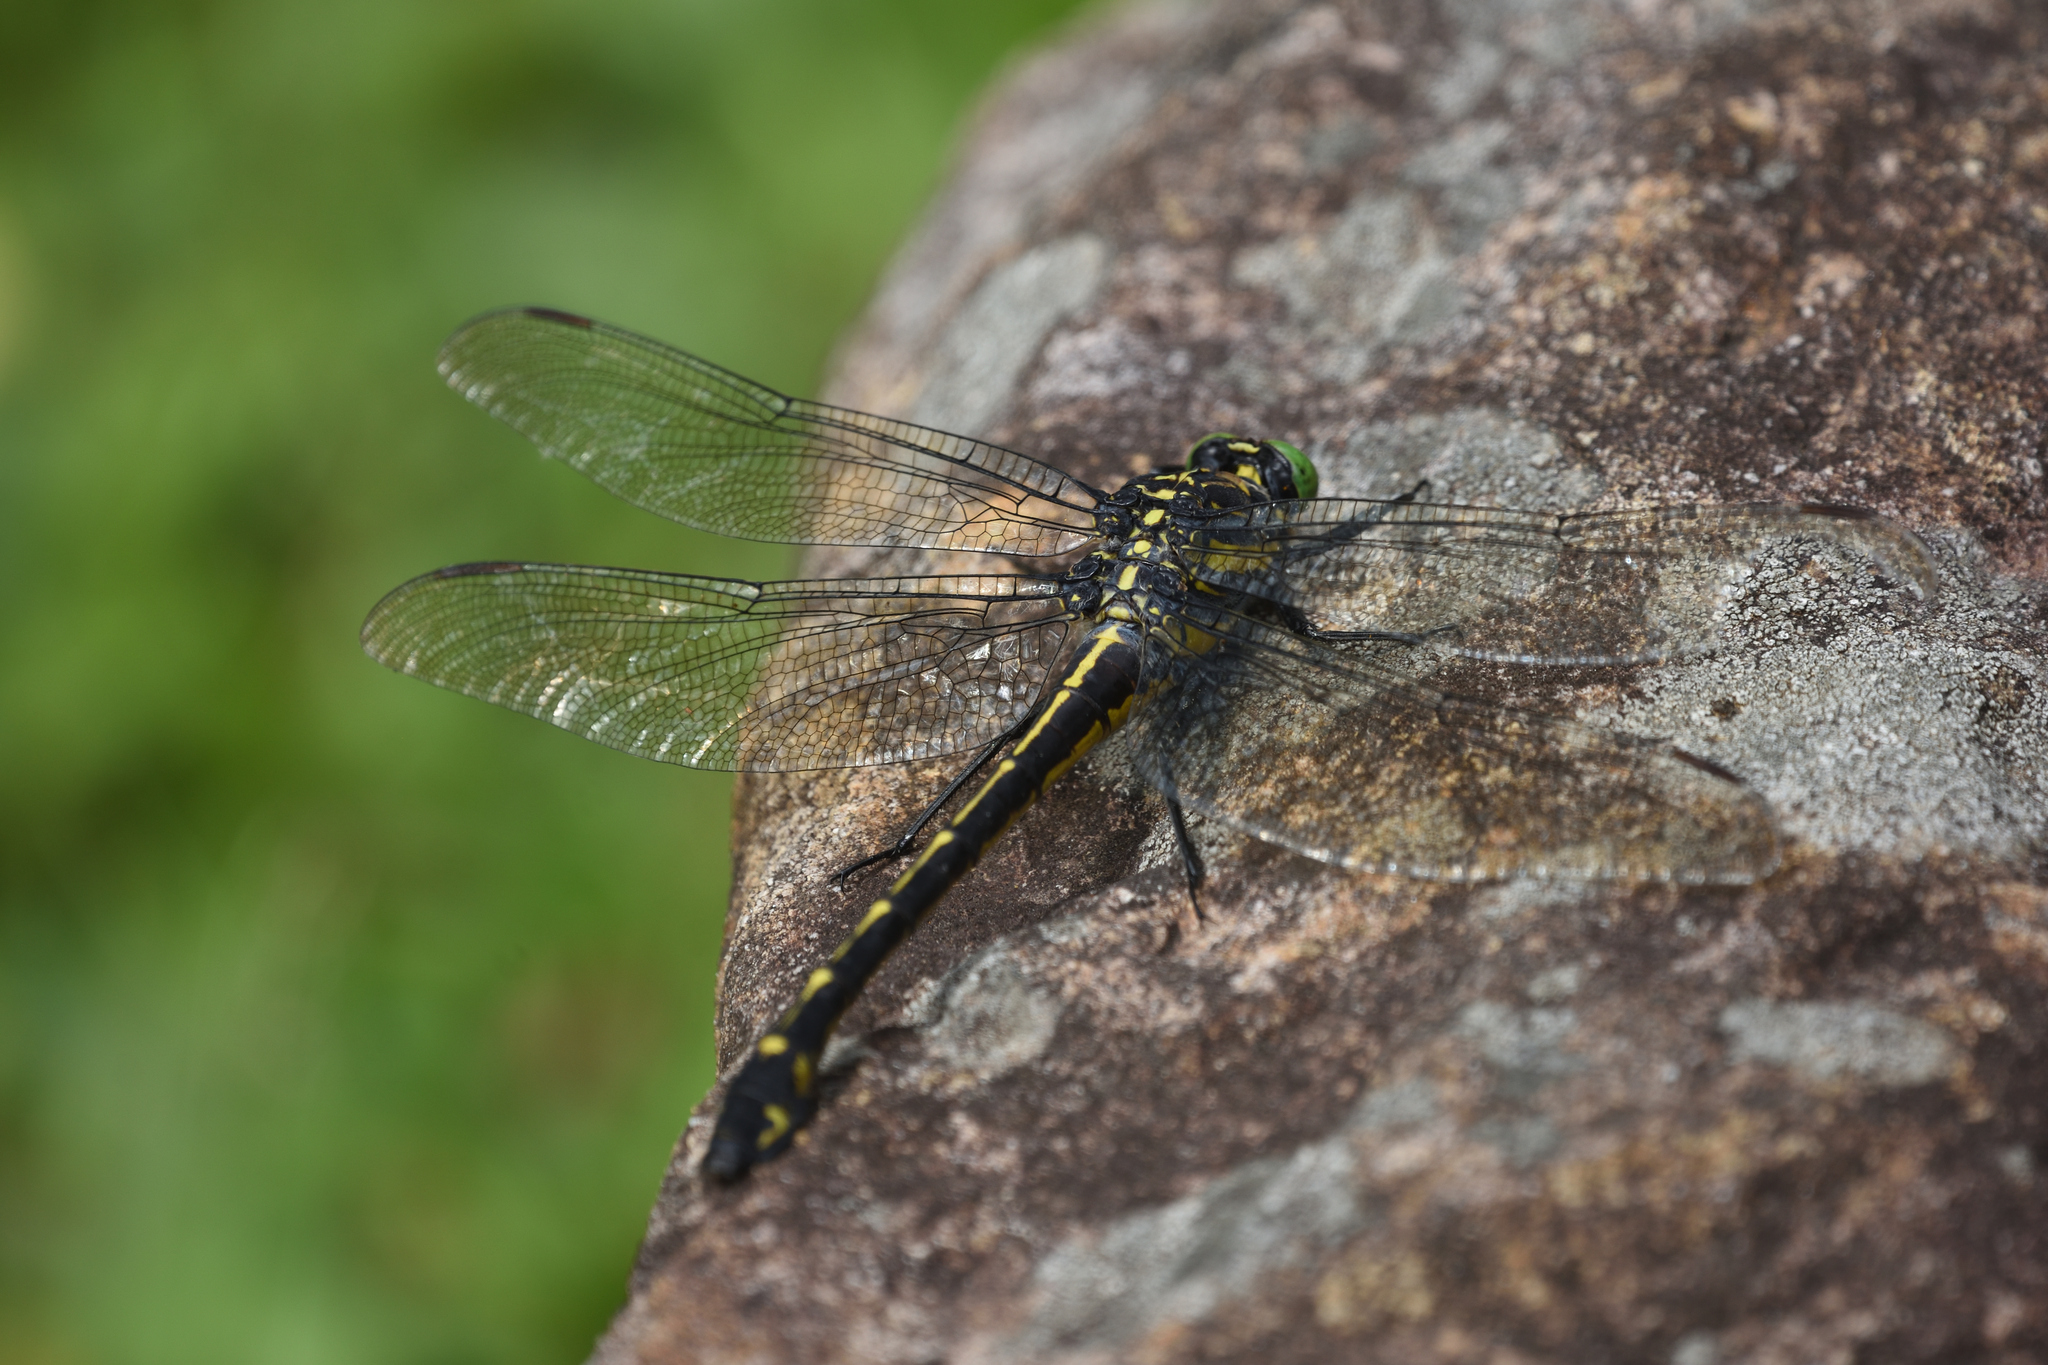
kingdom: Animalia
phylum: Arthropoda
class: Insecta
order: Odonata
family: Gomphidae
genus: Hagenius
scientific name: Hagenius brevistylus
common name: Dragonhunter
